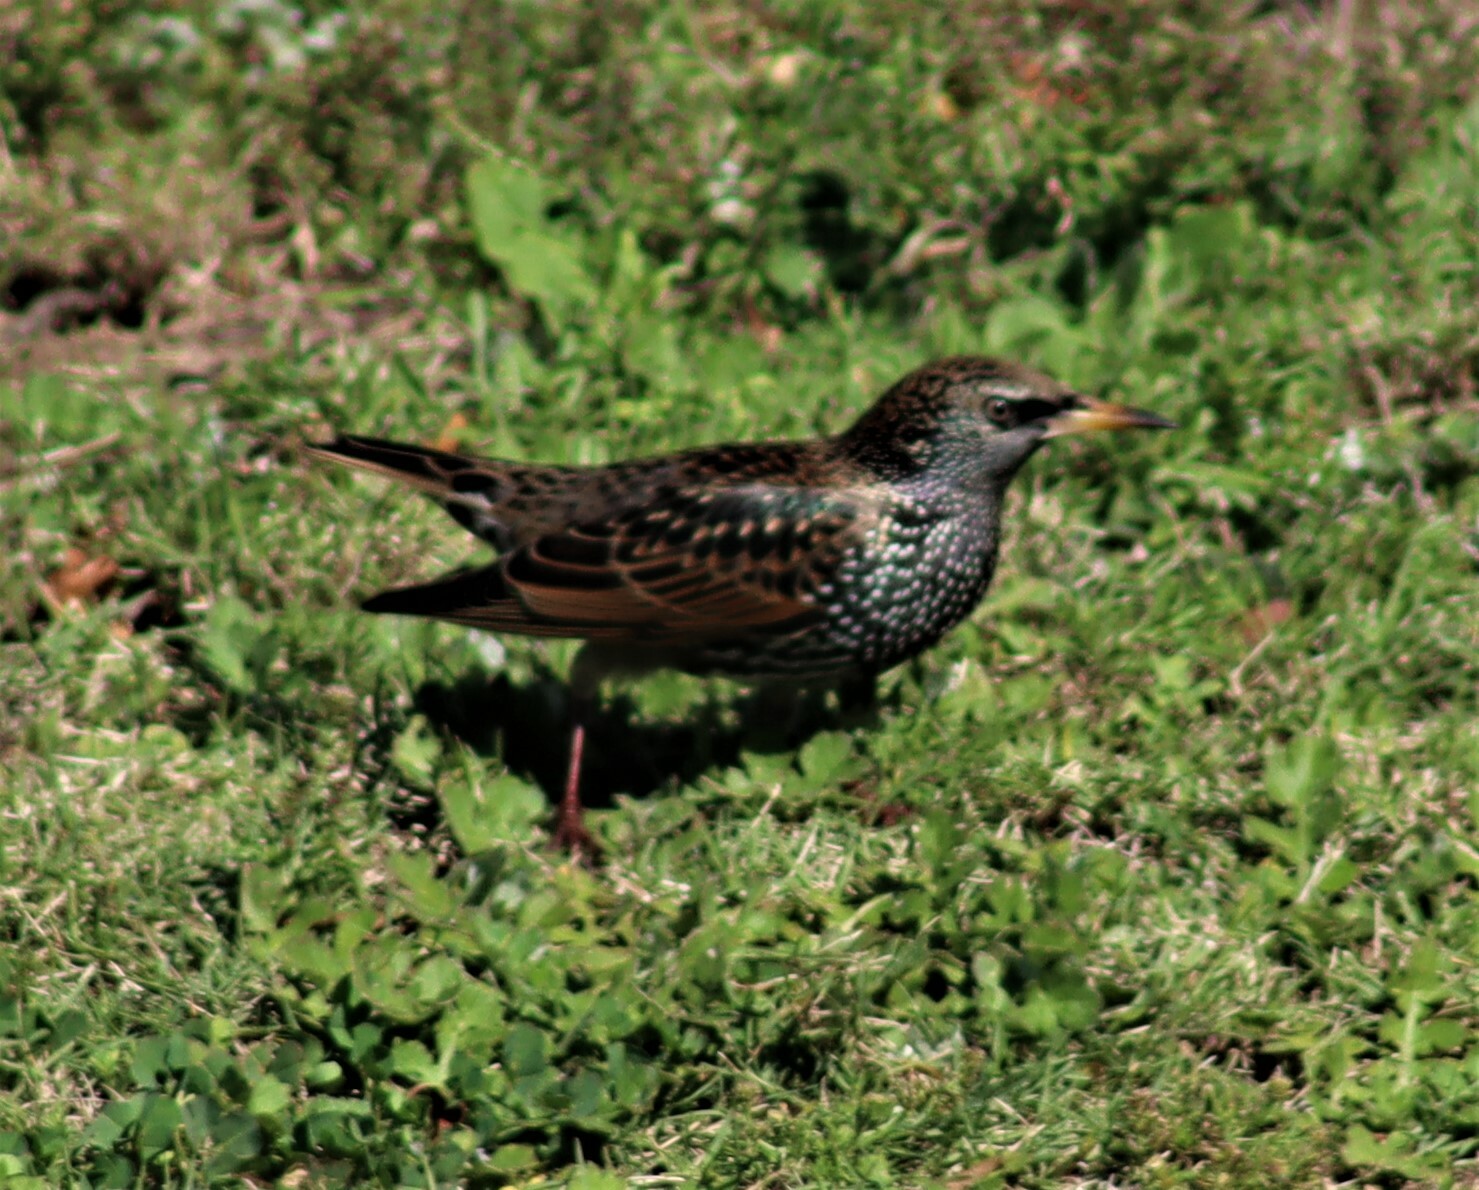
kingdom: Animalia
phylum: Chordata
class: Aves
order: Passeriformes
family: Sturnidae
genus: Sturnus
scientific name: Sturnus vulgaris
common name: Common starling
